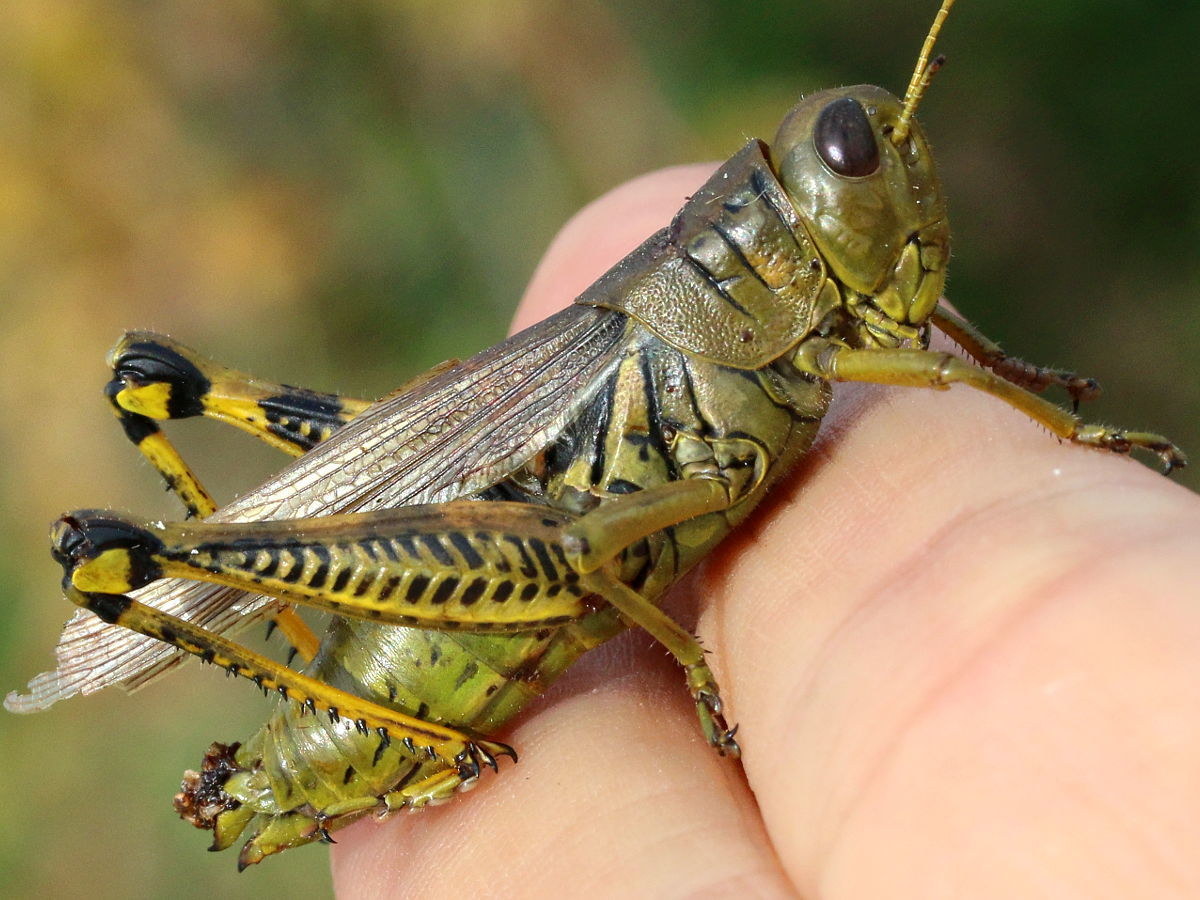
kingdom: Animalia
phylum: Arthropoda
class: Insecta
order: Orthoptera
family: Acrididae
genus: Melanoplus
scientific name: Melanoplus differentialis
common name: Differential grasshopper
